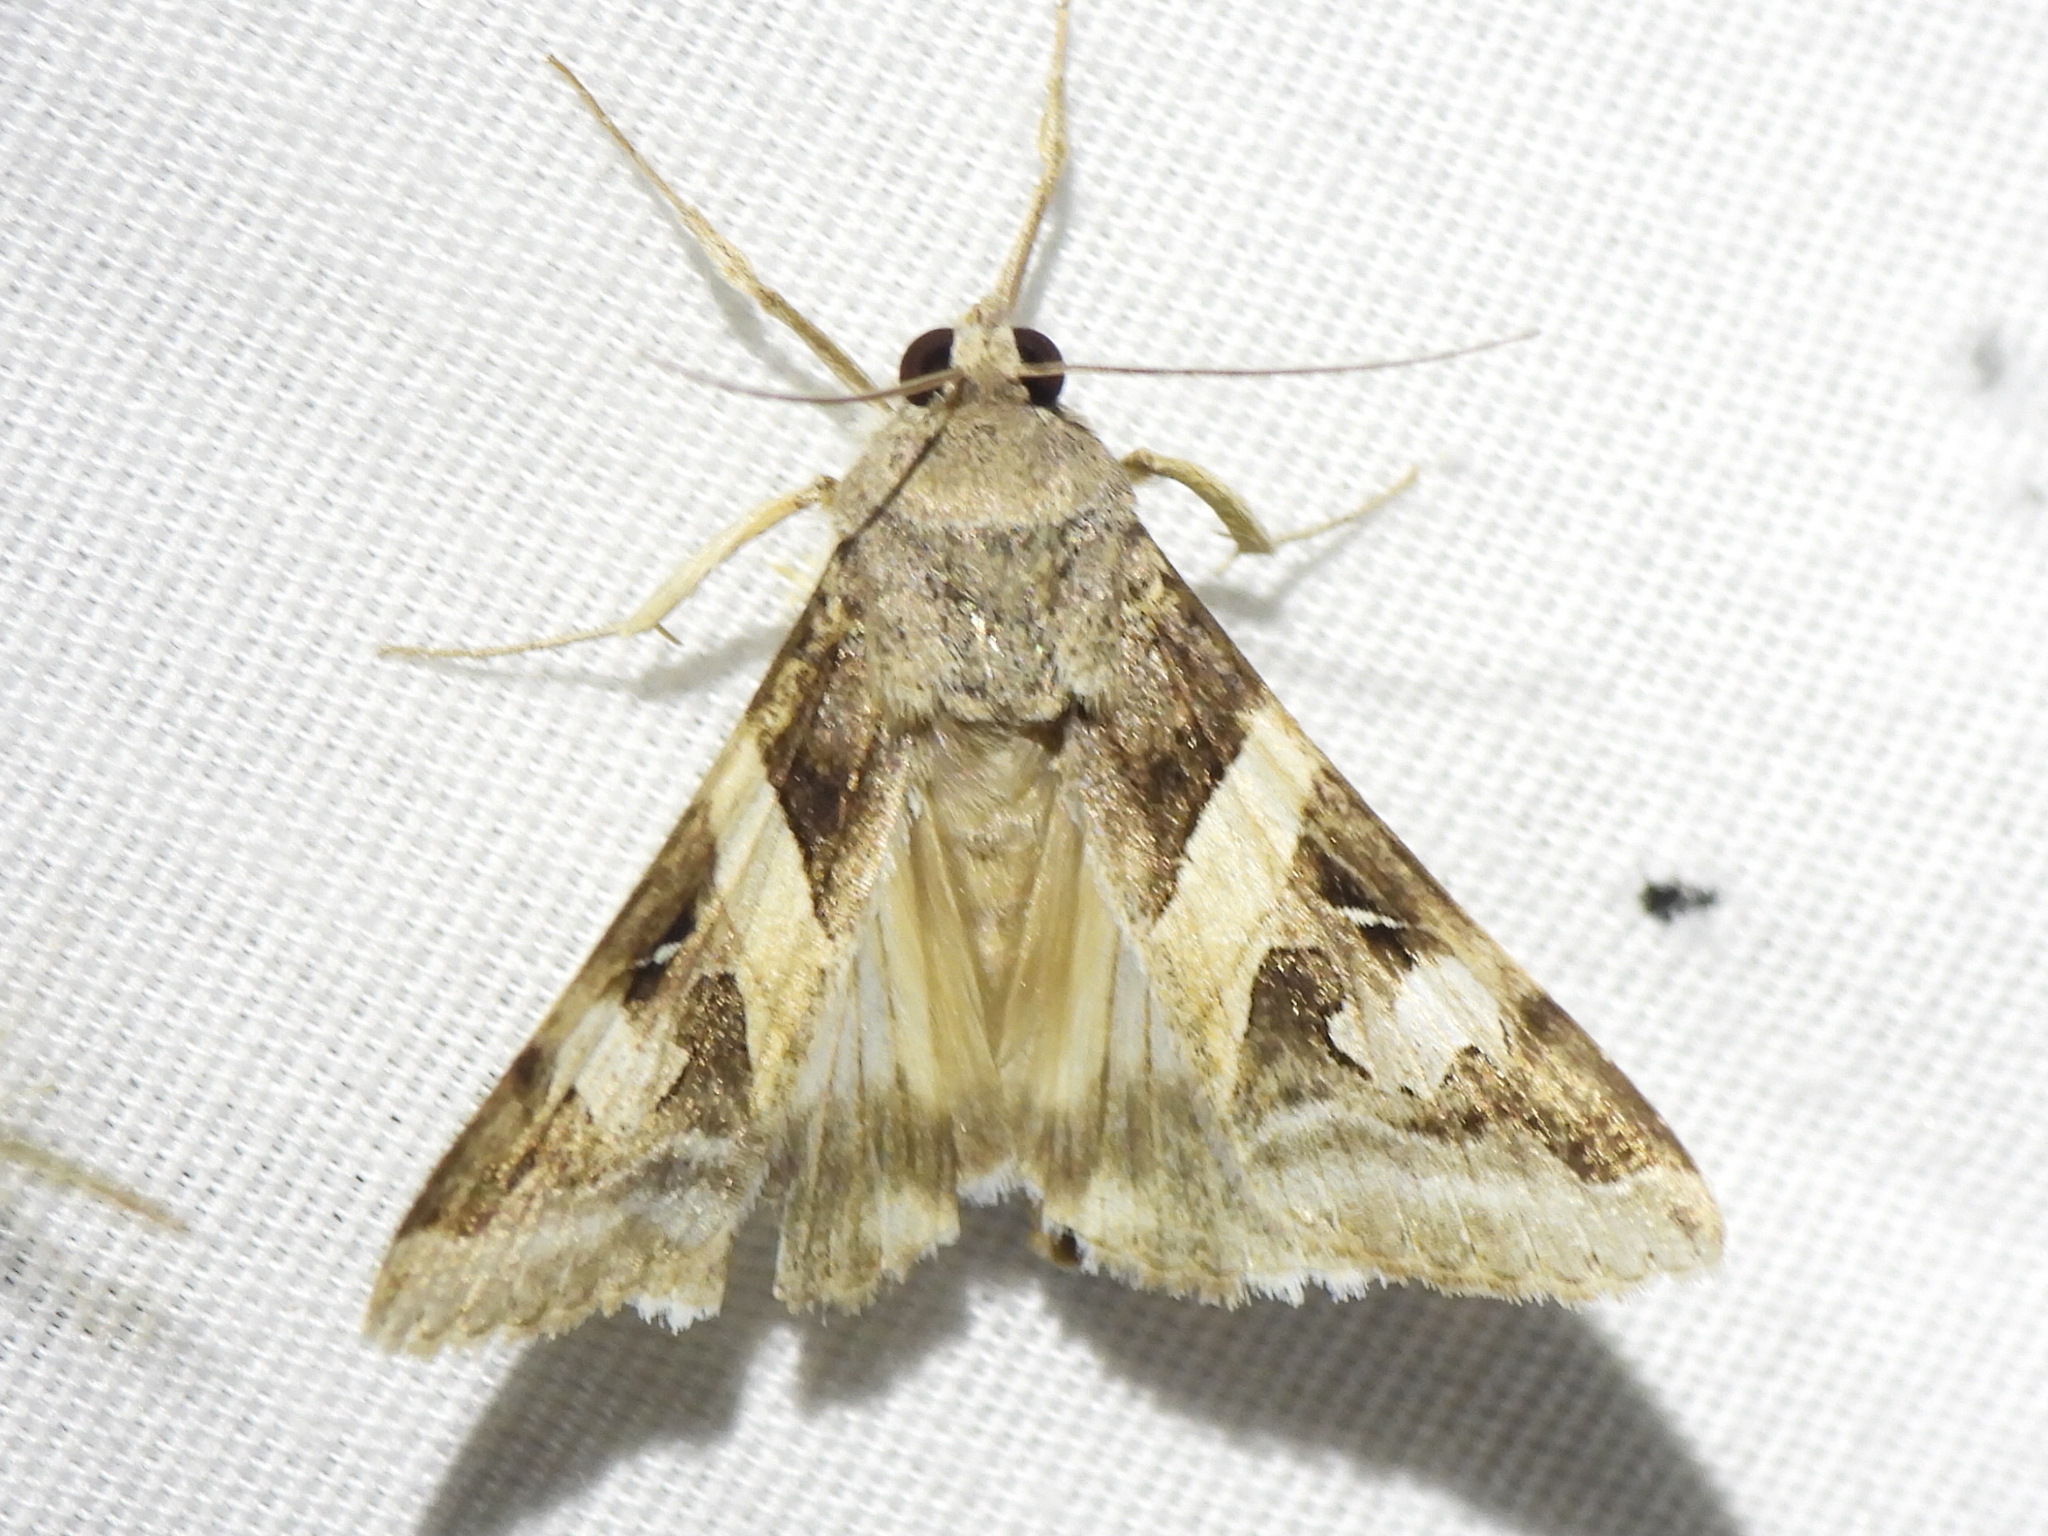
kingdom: Animalia
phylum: Arthropoda
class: Insecta
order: Lepidoptera
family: Erebidae
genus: Melipotis
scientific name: Melipotis indomita
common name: Moth
